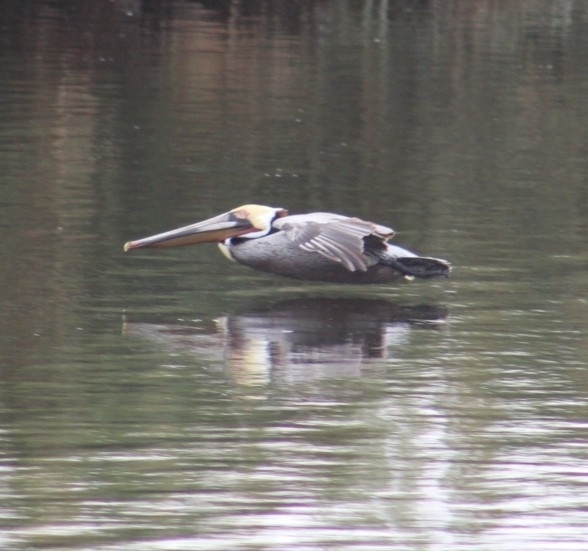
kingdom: Animalia
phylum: Chordata
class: Aves
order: Pelecaniformes
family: Pelecanidae
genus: Pelecanus
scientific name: Pelecanus occidentalis
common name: Brown pelican
